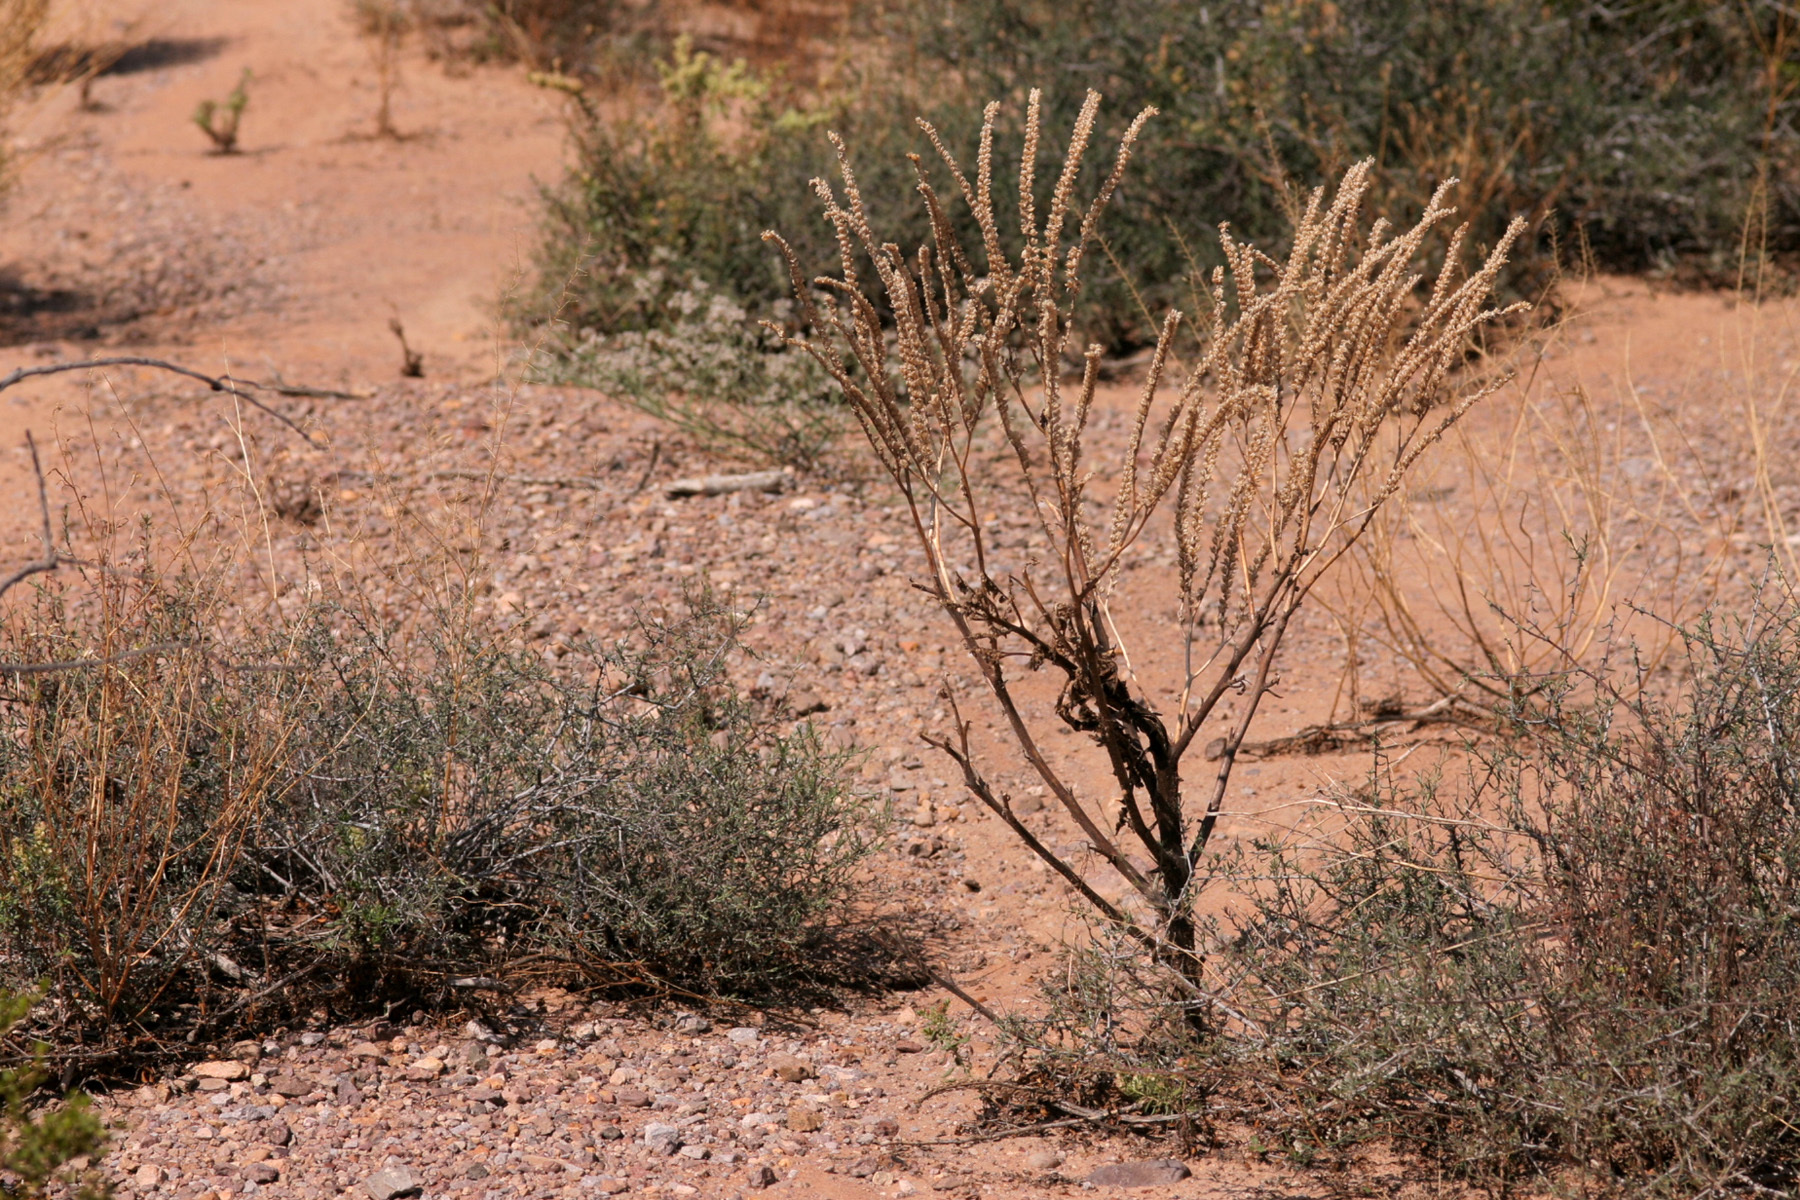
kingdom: Plantae
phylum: Tracheophyta
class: Magnoliopsida
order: Boraginales
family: Hydrophyllaceae
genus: Phacelia
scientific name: Phacelia integrifolia
